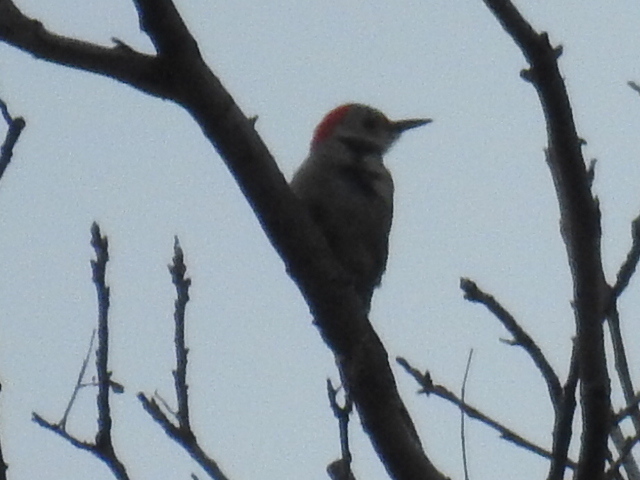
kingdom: Animalia
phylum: Chordata
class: Aves
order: Piciformes
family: Picidae
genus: Melanerpes
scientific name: Melanerpes carolinus
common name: Red-bellied woodpecker
